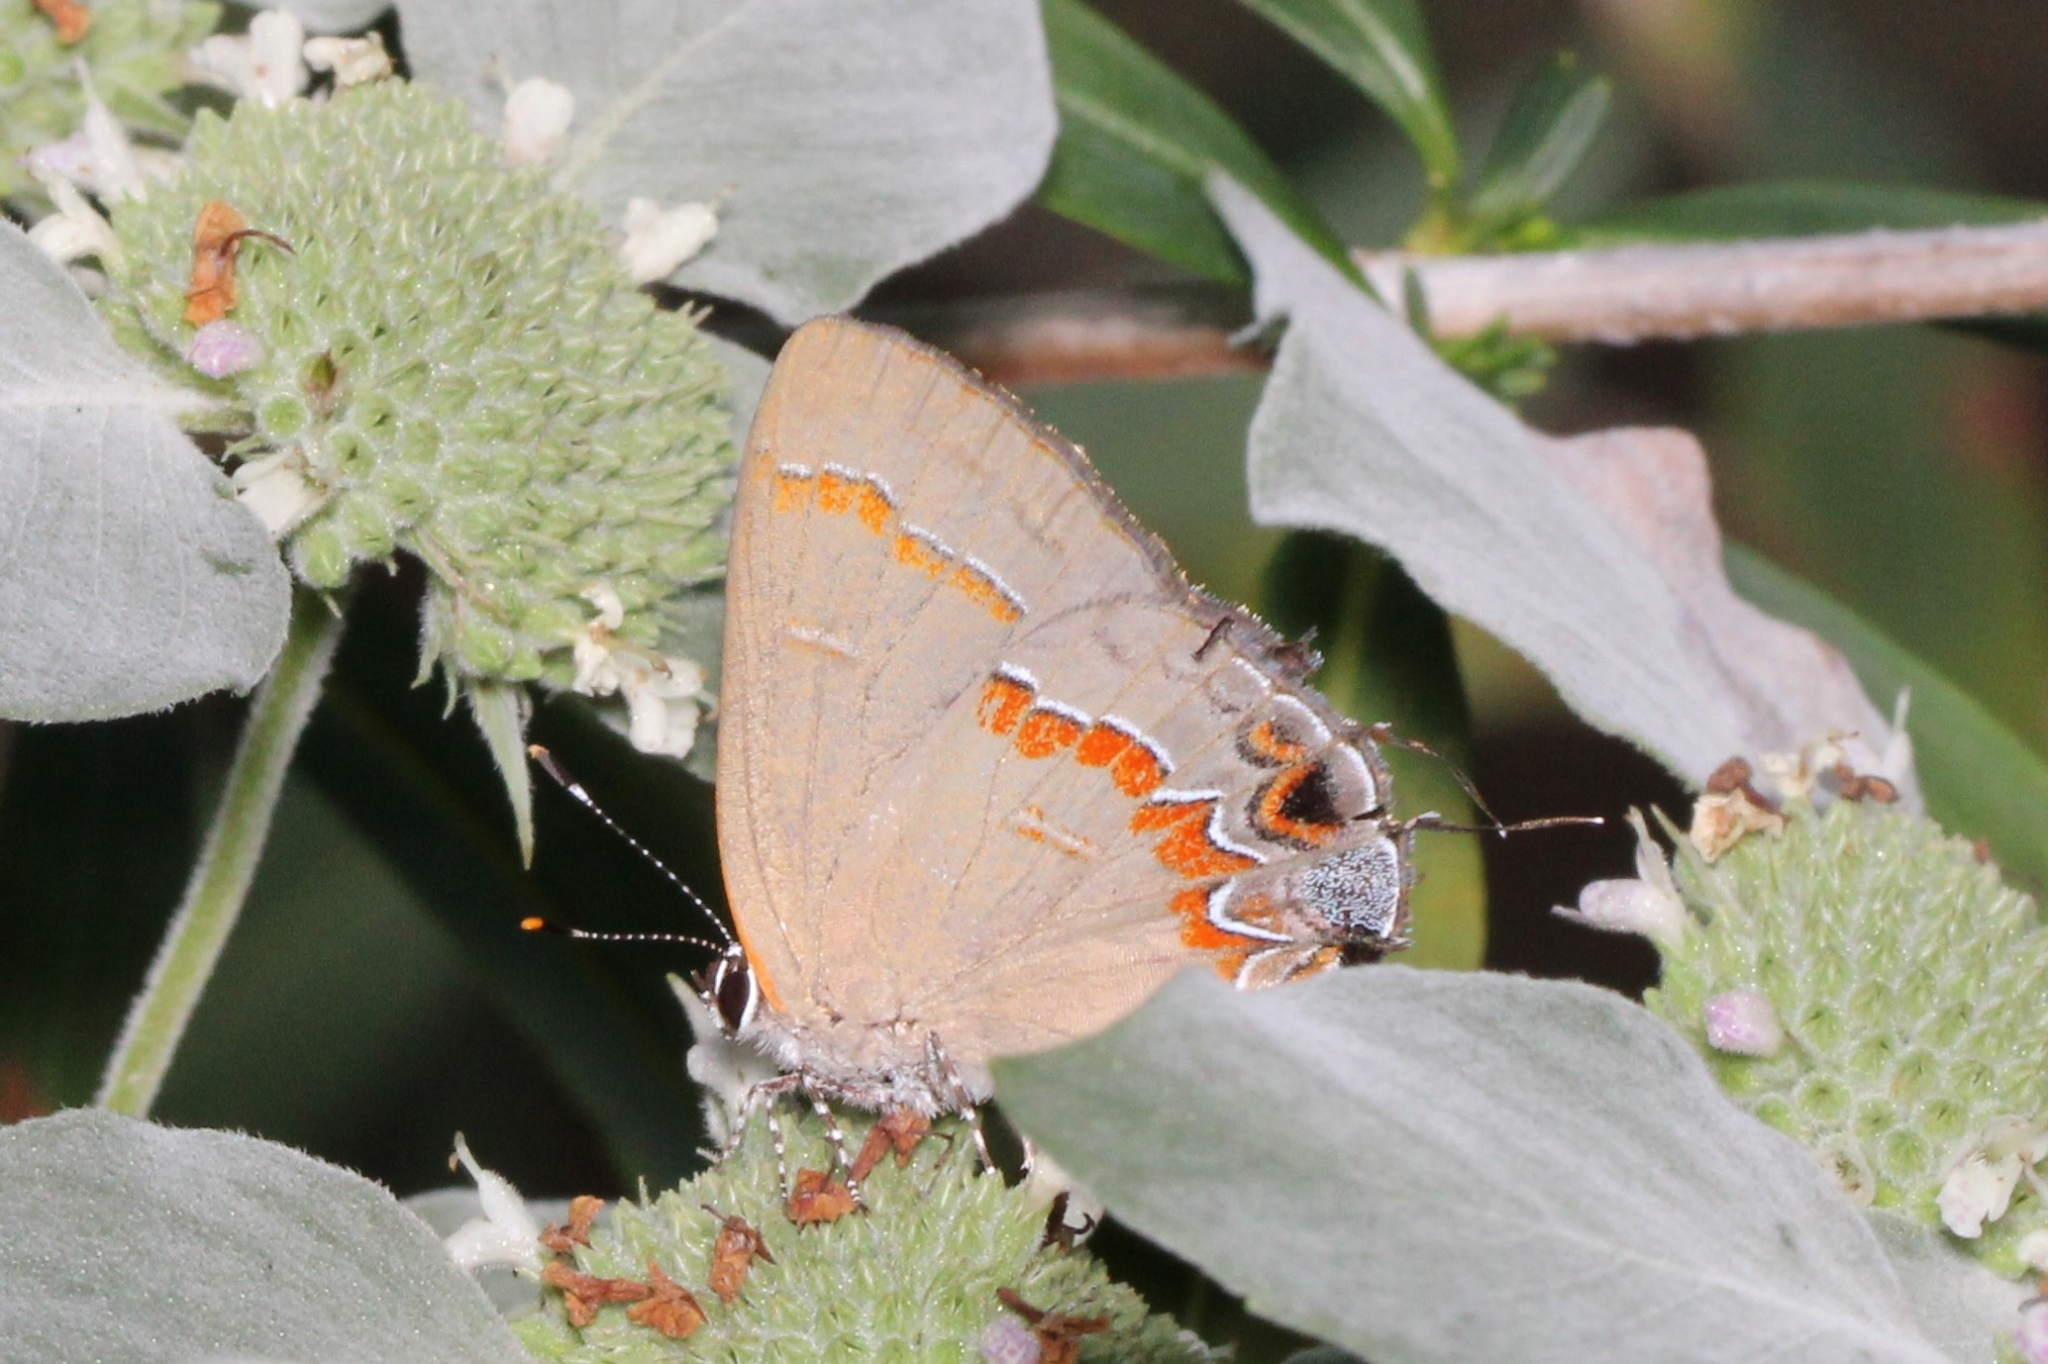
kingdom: Animalia
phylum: Arthropoda
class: Insecta
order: Lepidoptera
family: Lycaenidae
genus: Calycopis
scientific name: Calycopis cecrops
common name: Red-banded hairstreak
